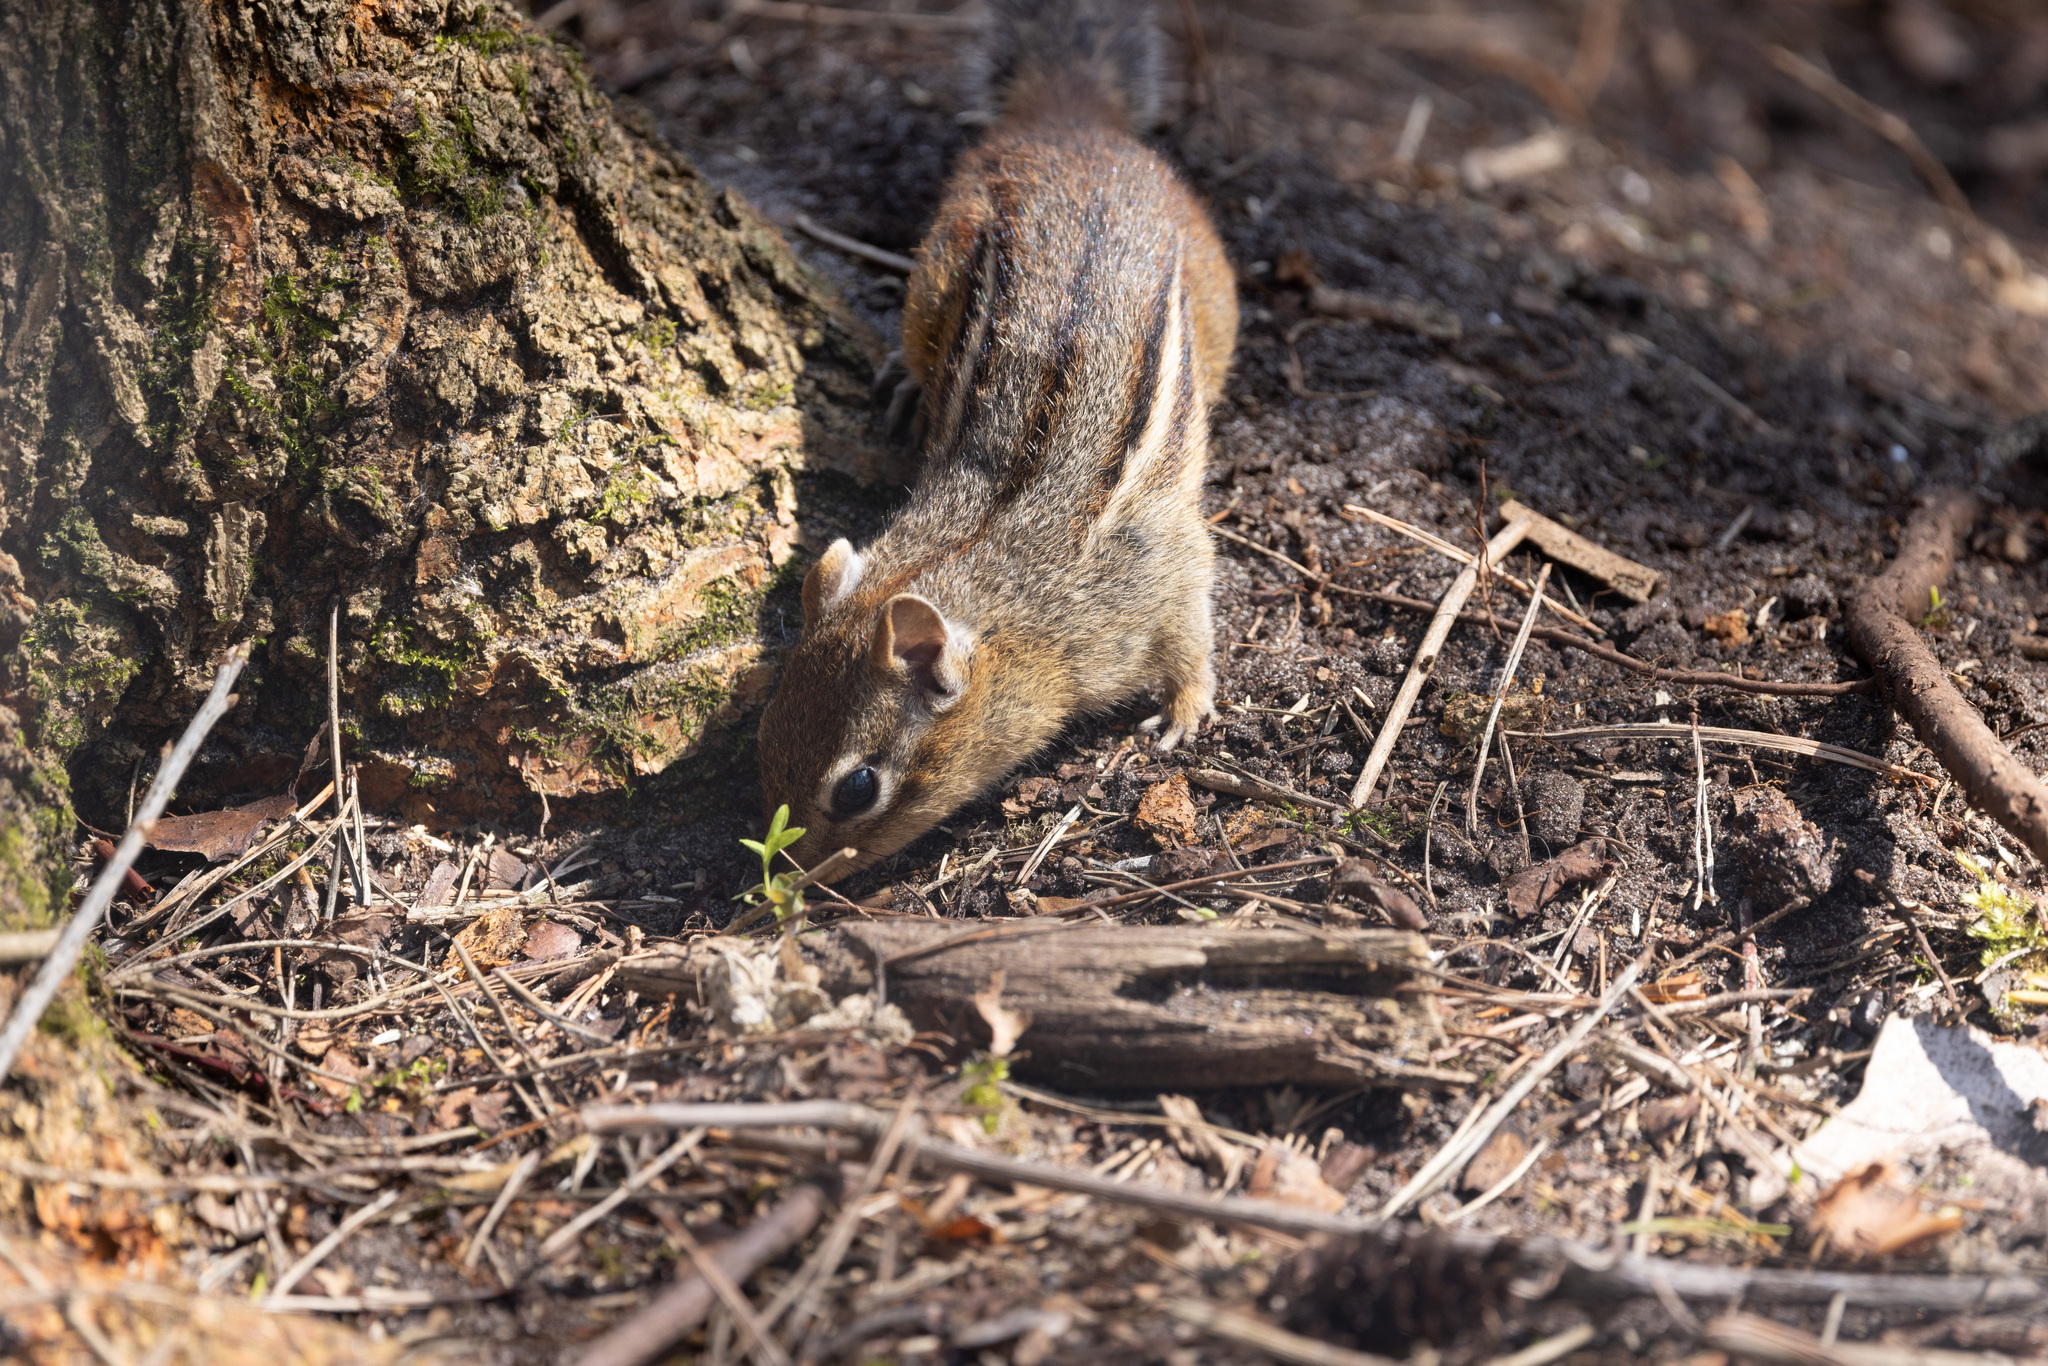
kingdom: Animalia
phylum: Chordata
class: Mammalia
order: Rodentia
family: Sciuridae
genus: Tamias
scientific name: Tamias striatus
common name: Eastern chipmunk
